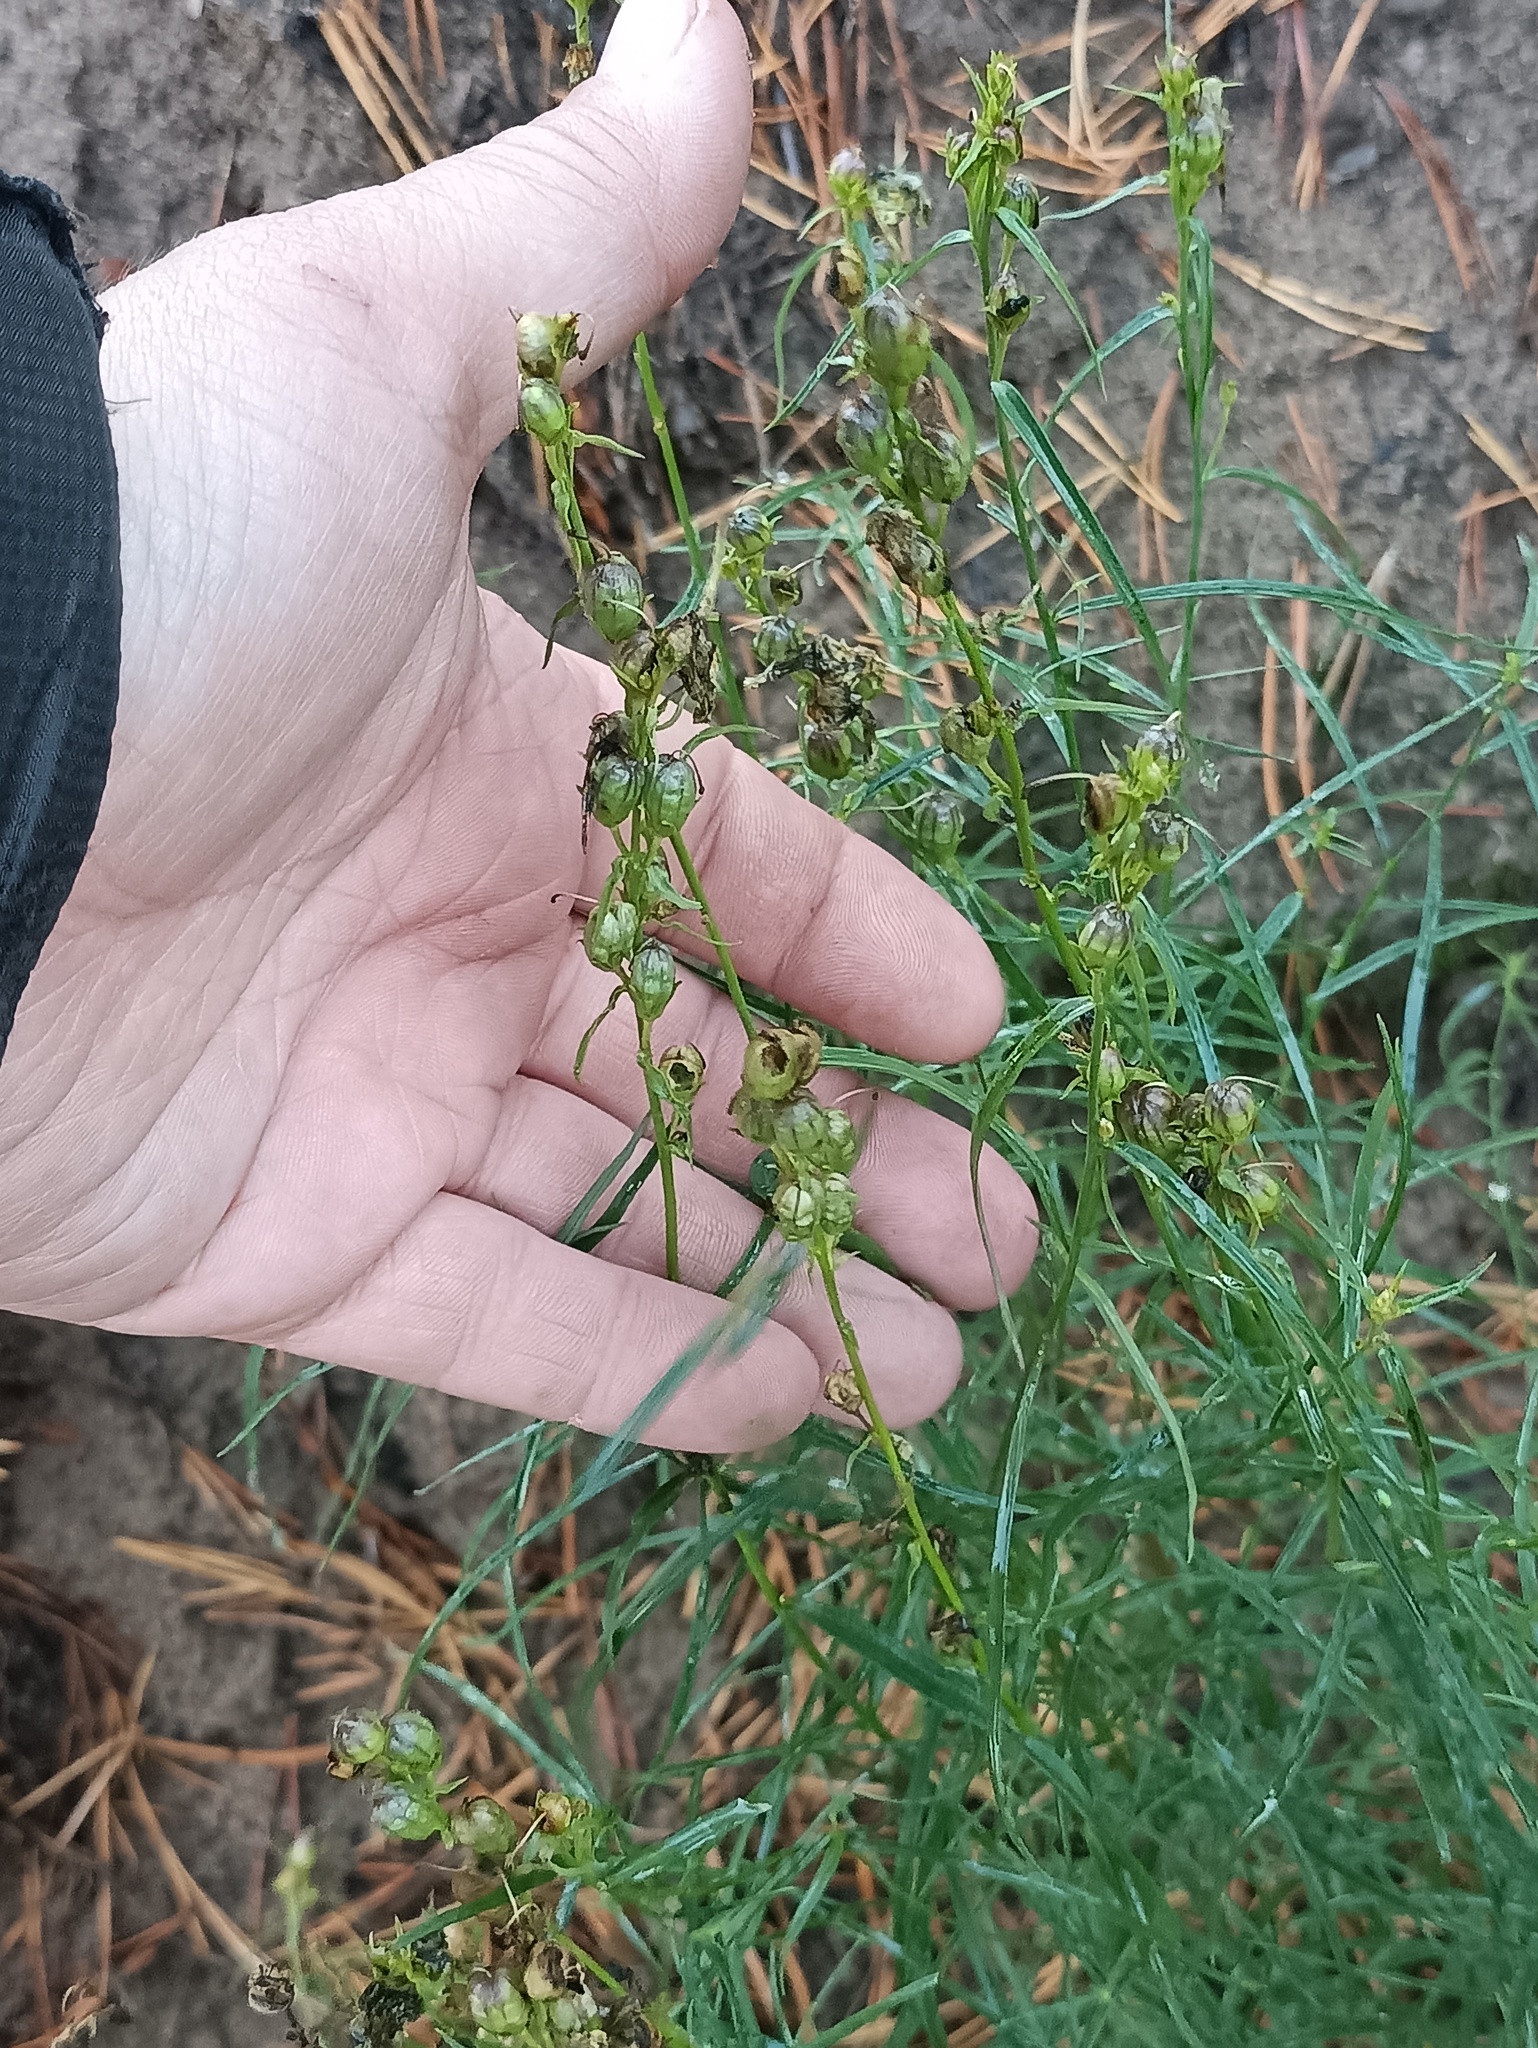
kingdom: Plantae
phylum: Tracheophyta
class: Magnoliopsida
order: Lamiales
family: Plantaginaceae
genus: Linaria
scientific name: Linaria vulgaris
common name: Butter and eggs
